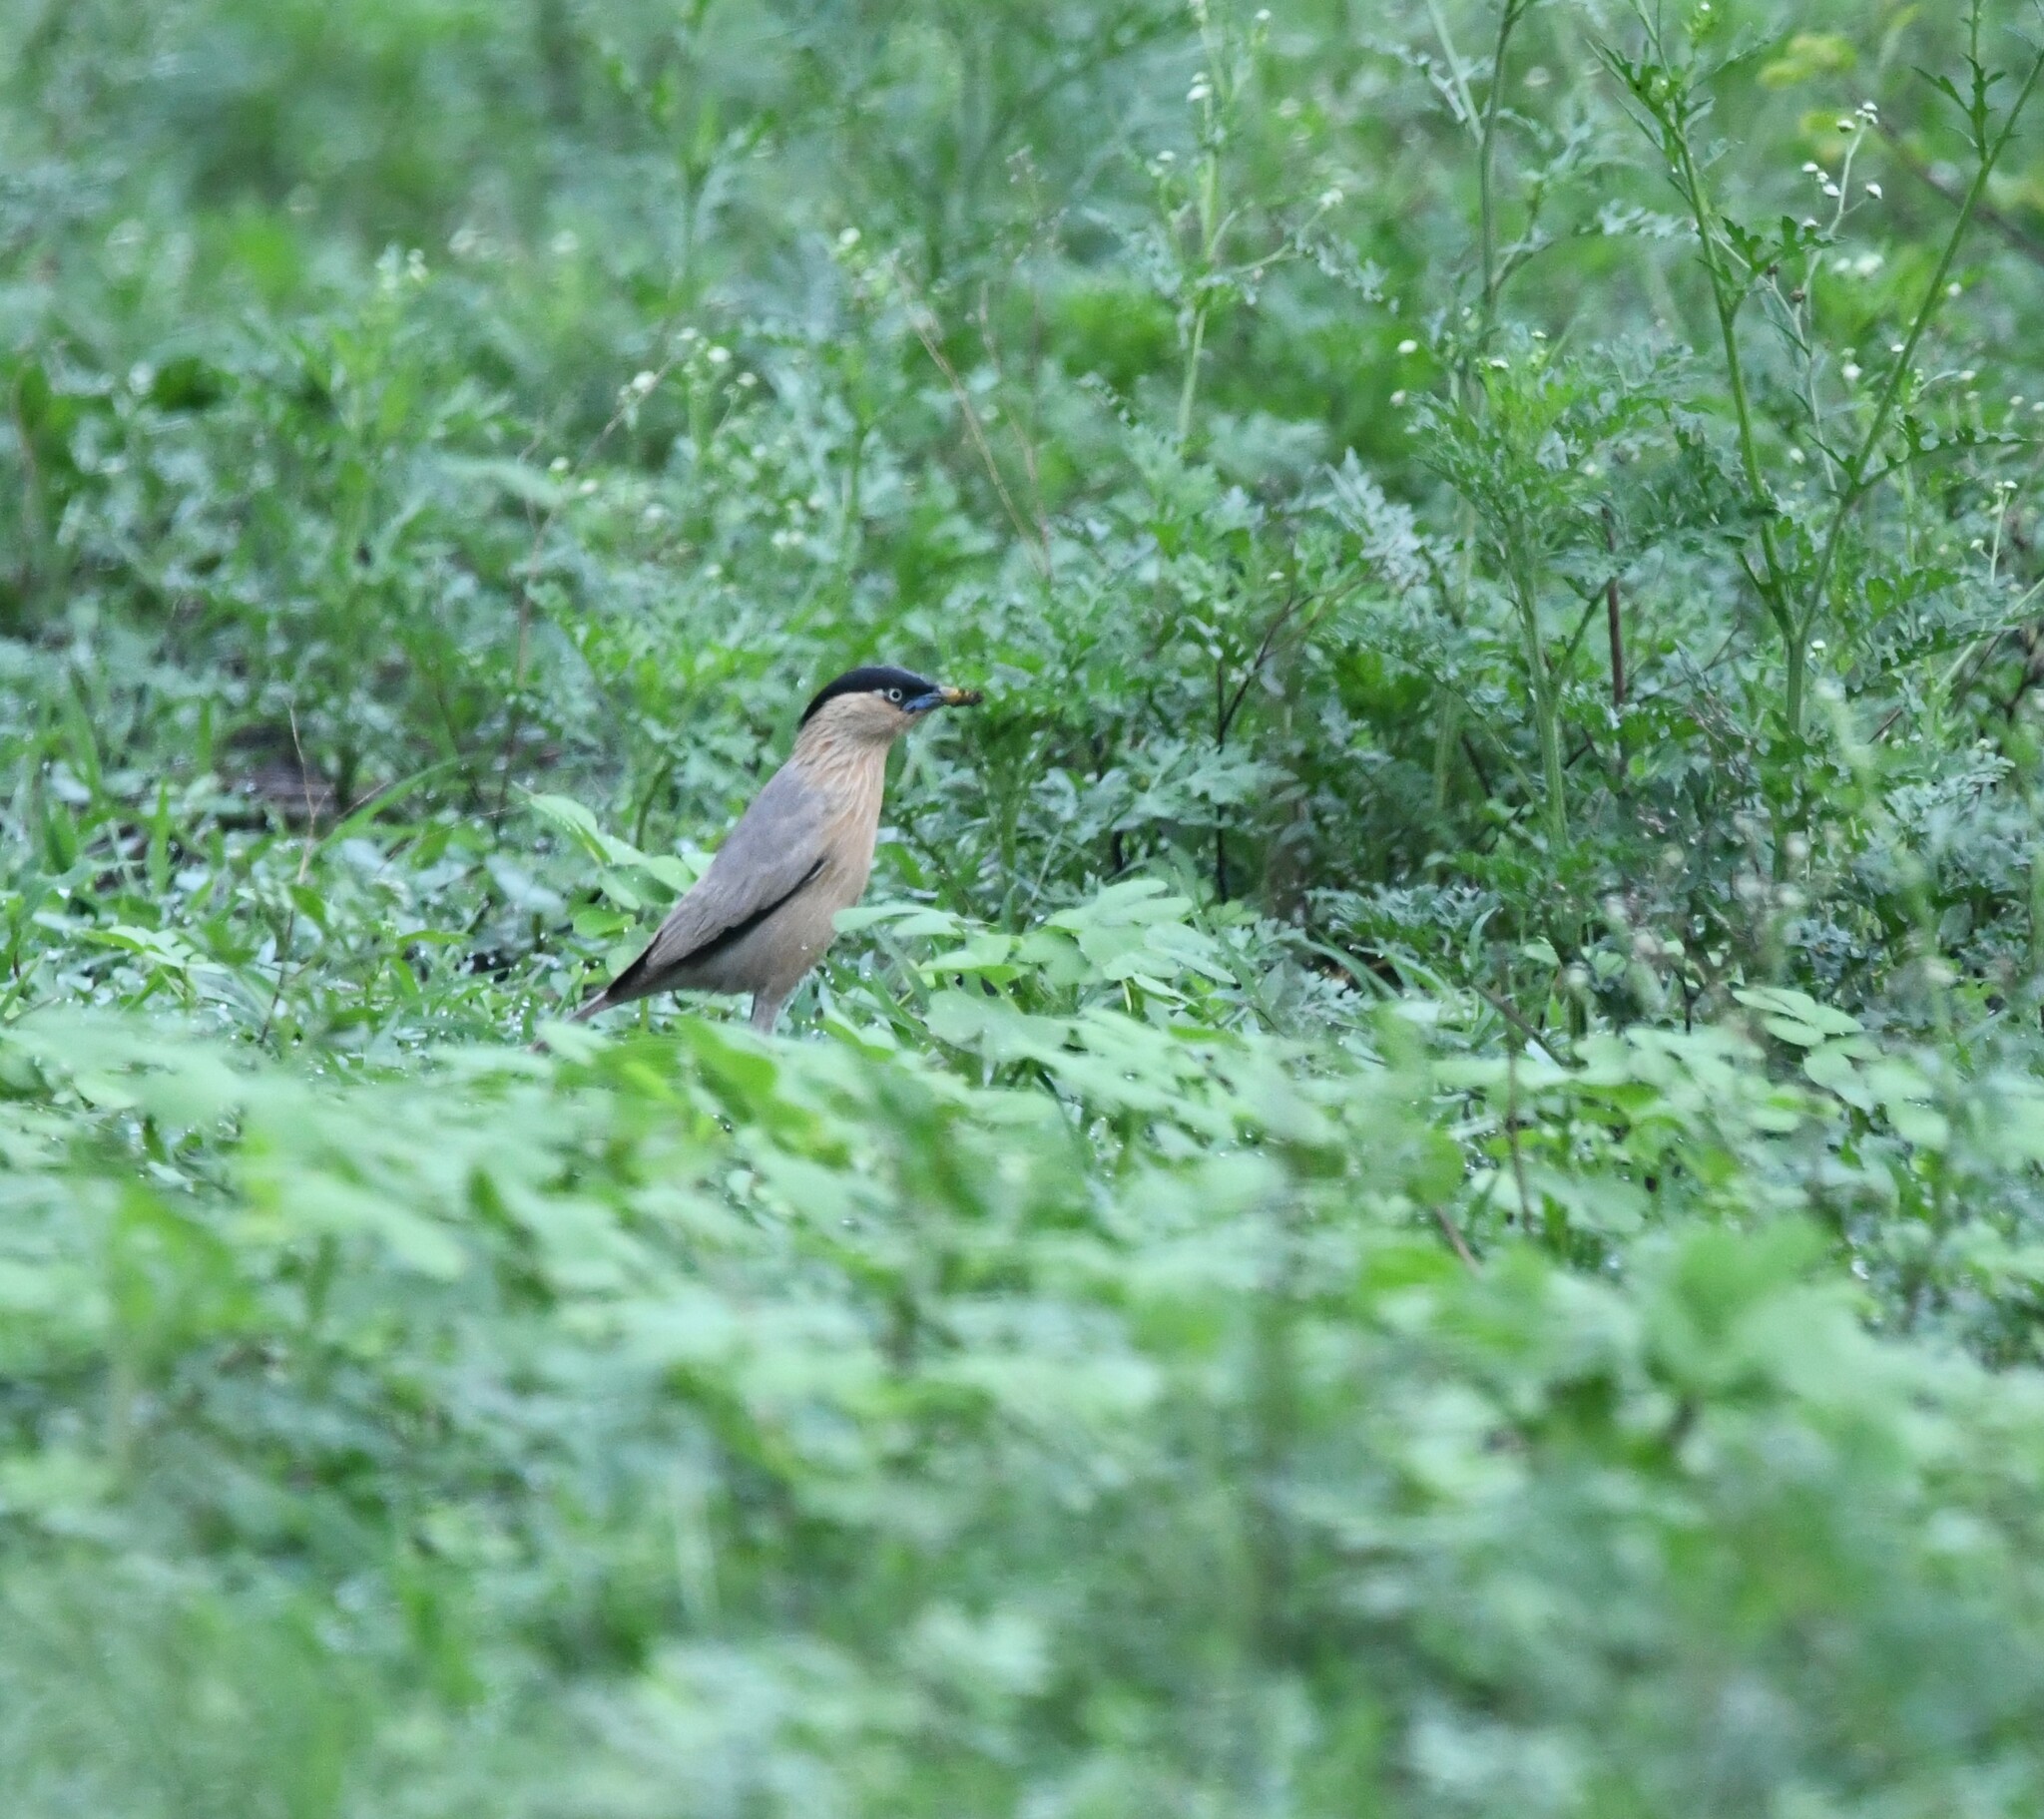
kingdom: Animalia
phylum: Chordata
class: Aves
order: Passeriformes
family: Sturnidae
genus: Sturnia
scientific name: Sturnia pagodarum
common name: Brahminy starling
